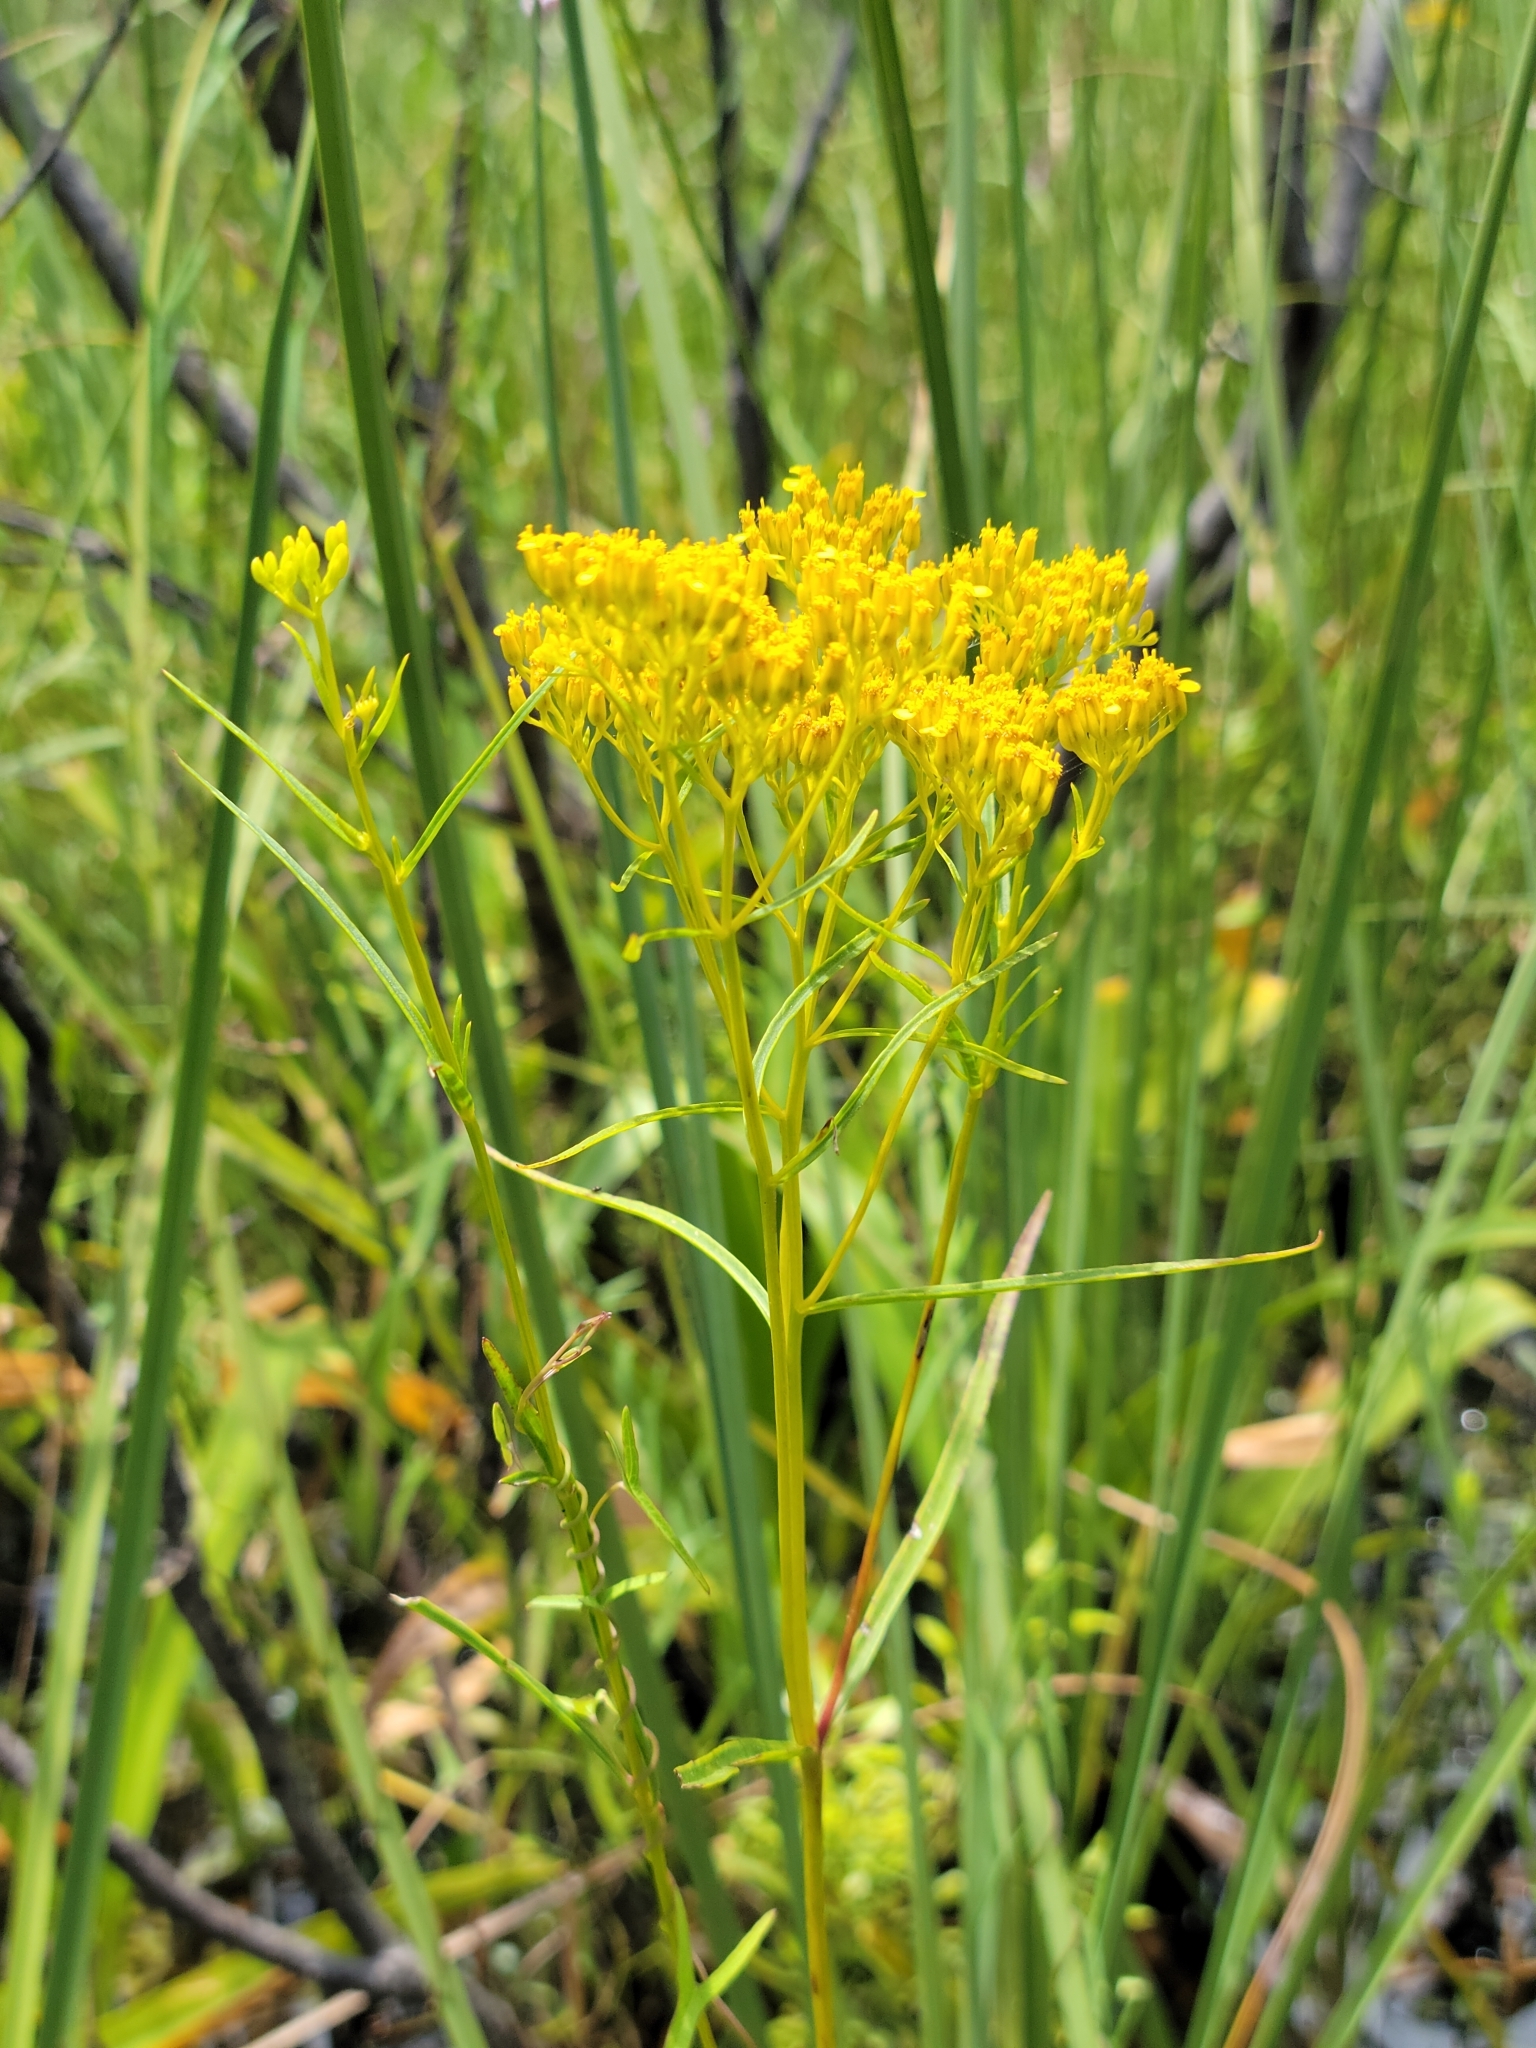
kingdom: Plantae
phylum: Tracheophyta
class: Magnoliopsida
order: Asterales
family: Asteraceae
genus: Flaveria
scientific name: Flaveria linearis
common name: Yellowtop
